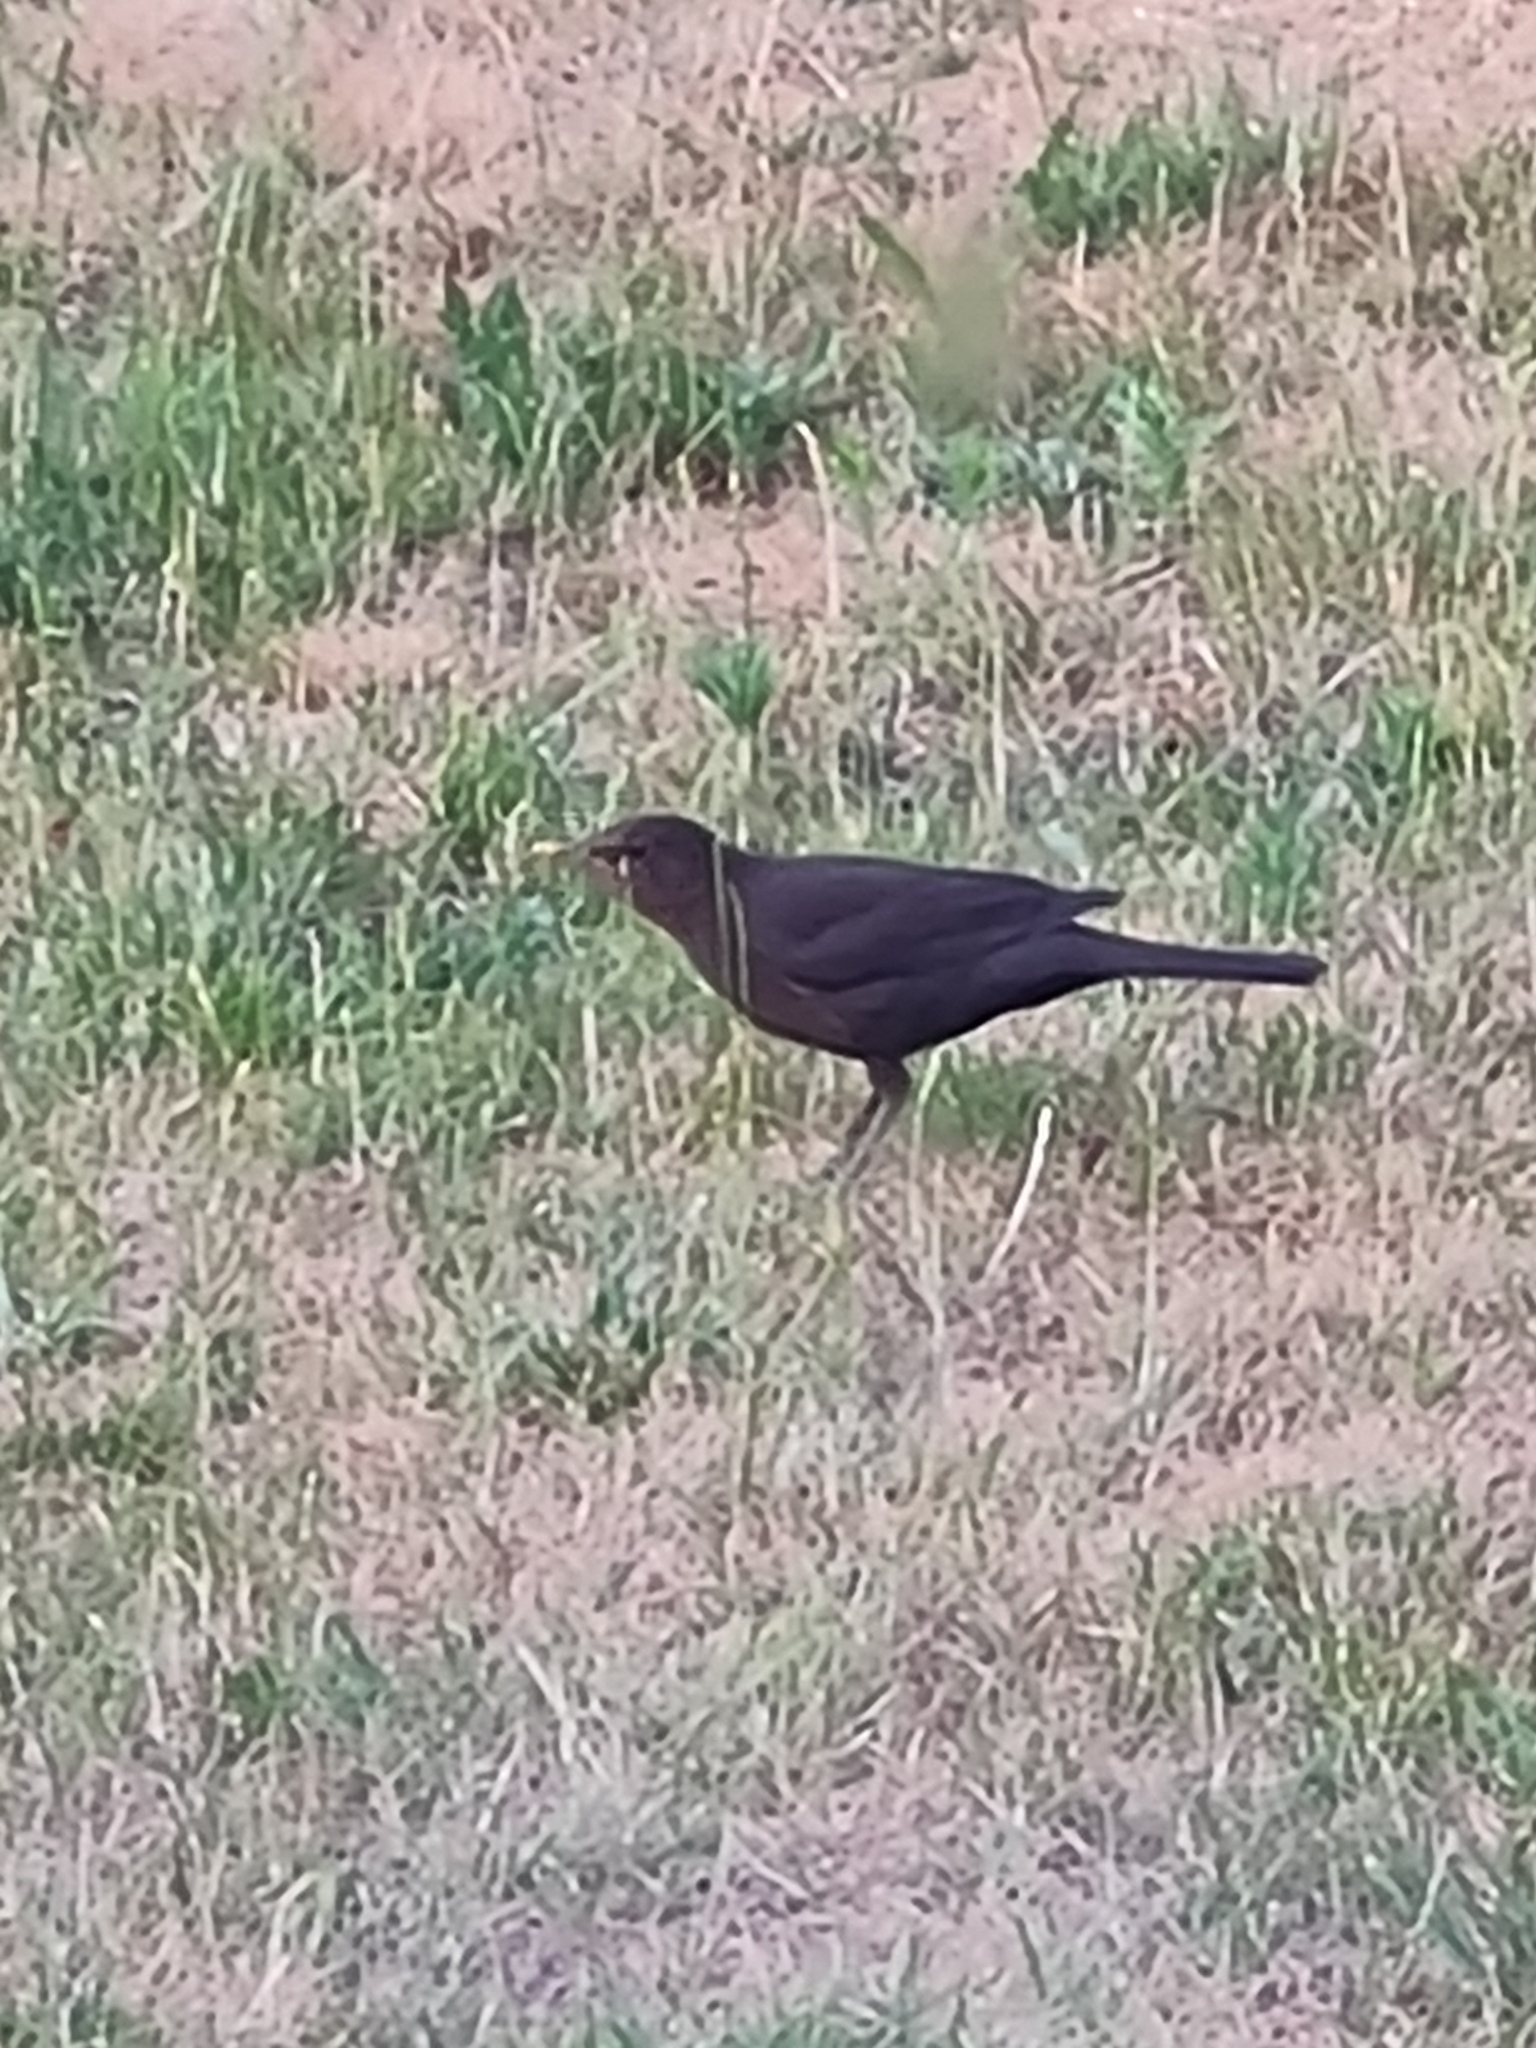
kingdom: Animalia
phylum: Chordata
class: Aves
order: Passeriformes
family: Turdidae
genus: Turdus
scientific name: Turdus merula
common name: Common blackbird
